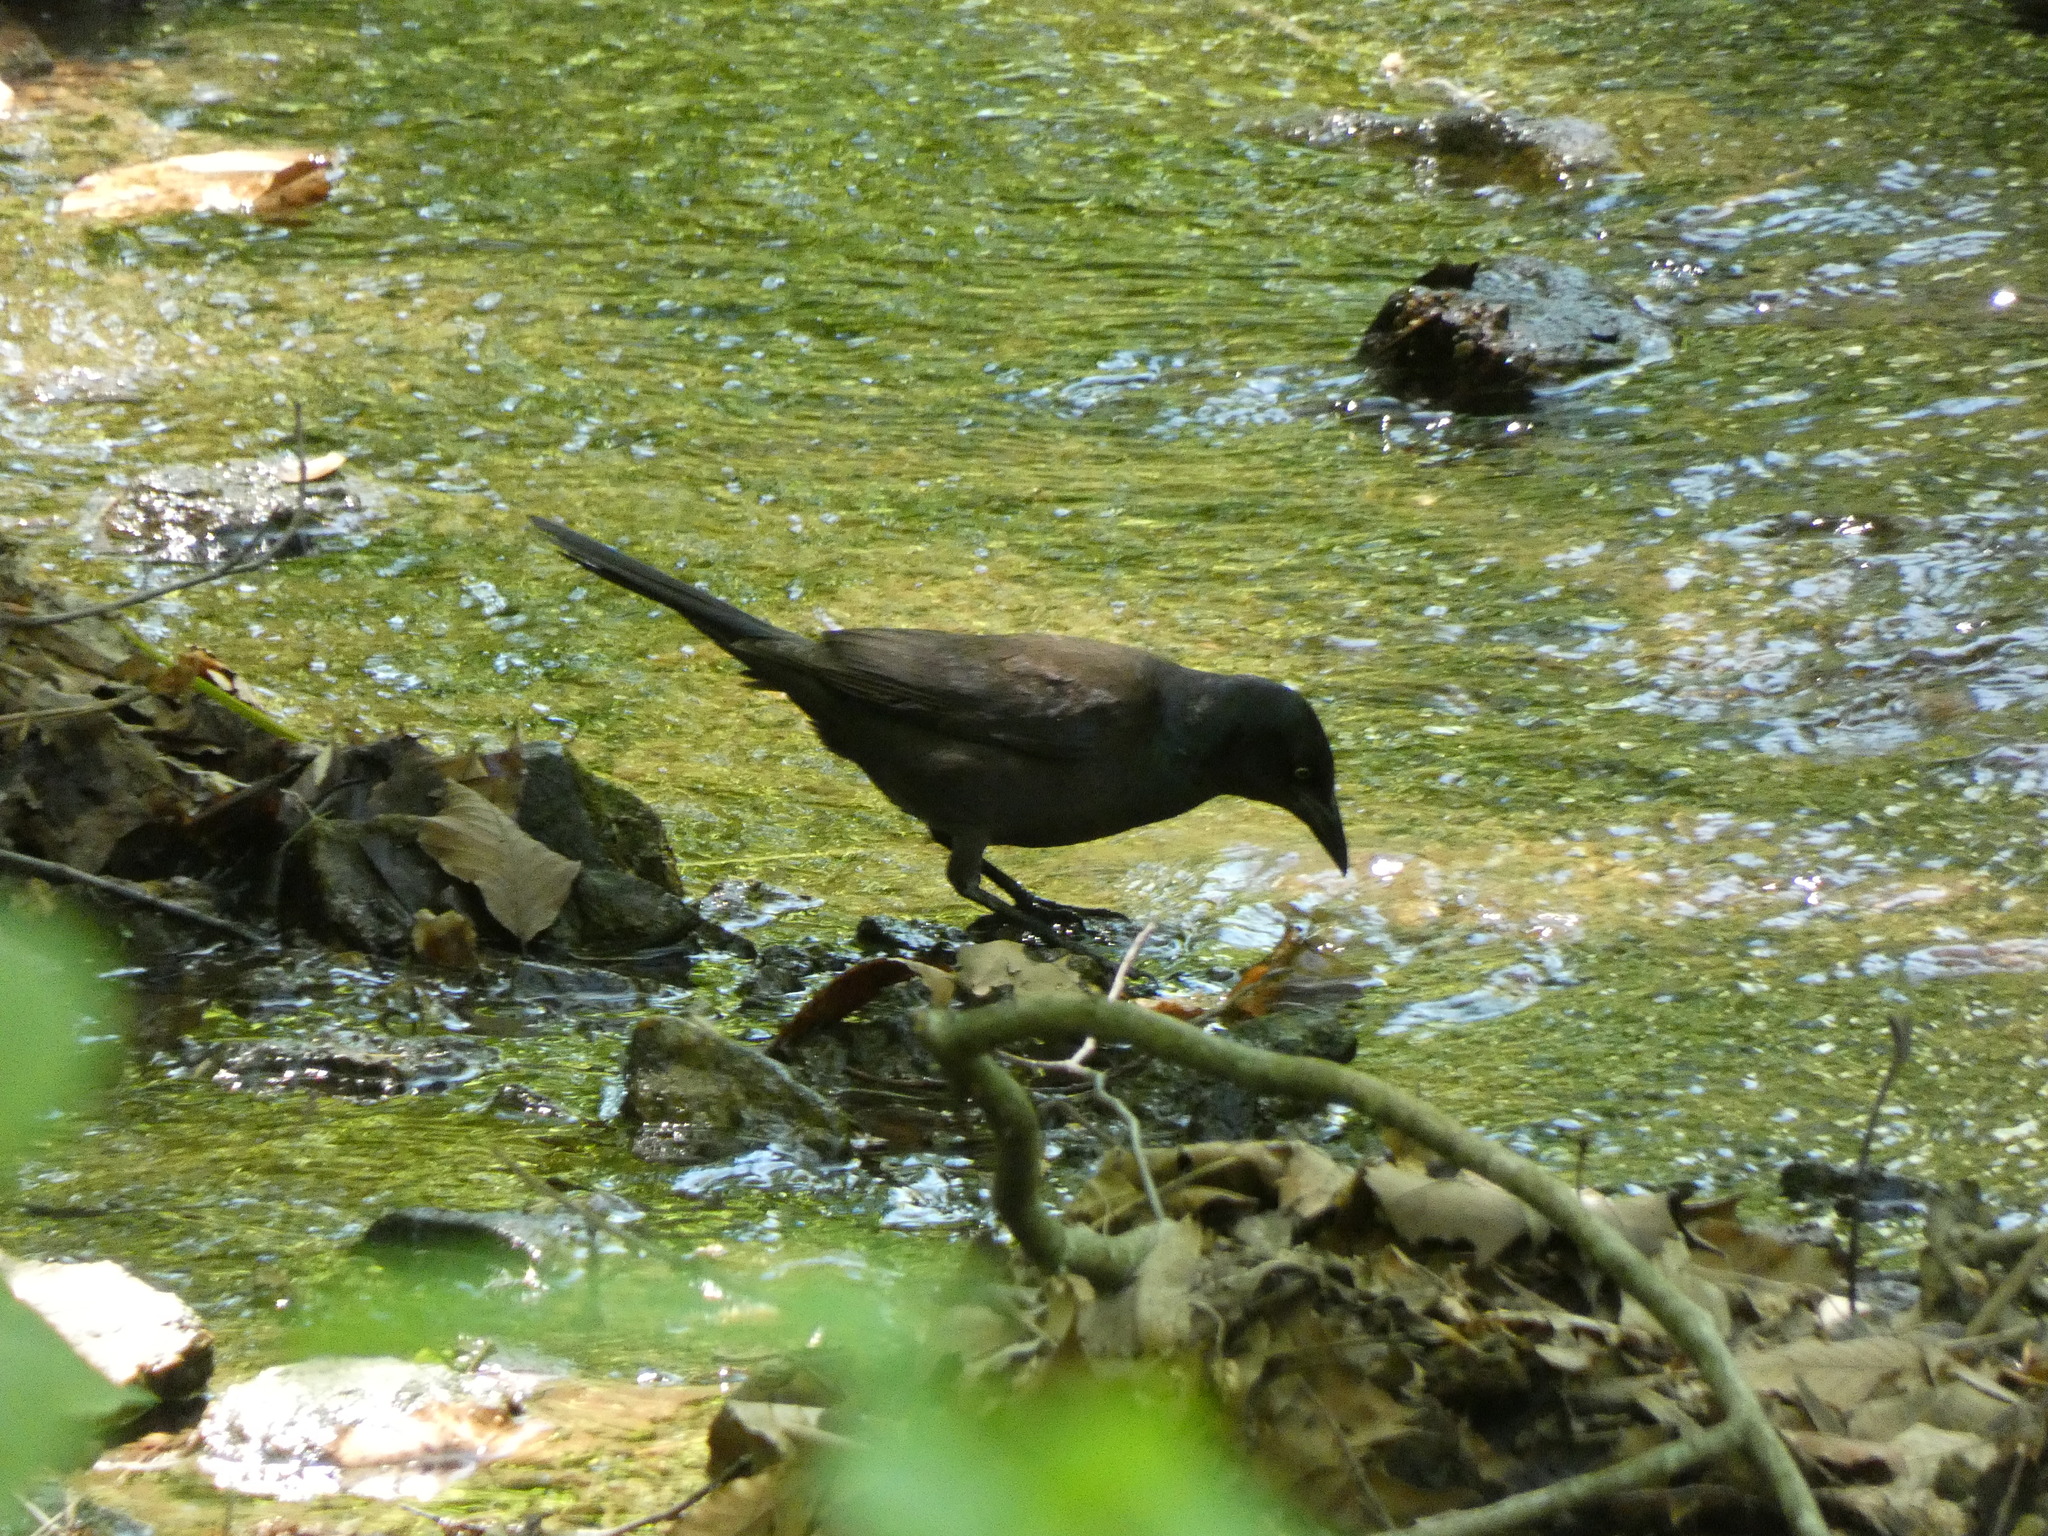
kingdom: Animalia
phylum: Chordata
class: Aves
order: Passeriformes
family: Icteridae
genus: Quiscalus
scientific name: Quiscalus quiscula
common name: Common grackle
